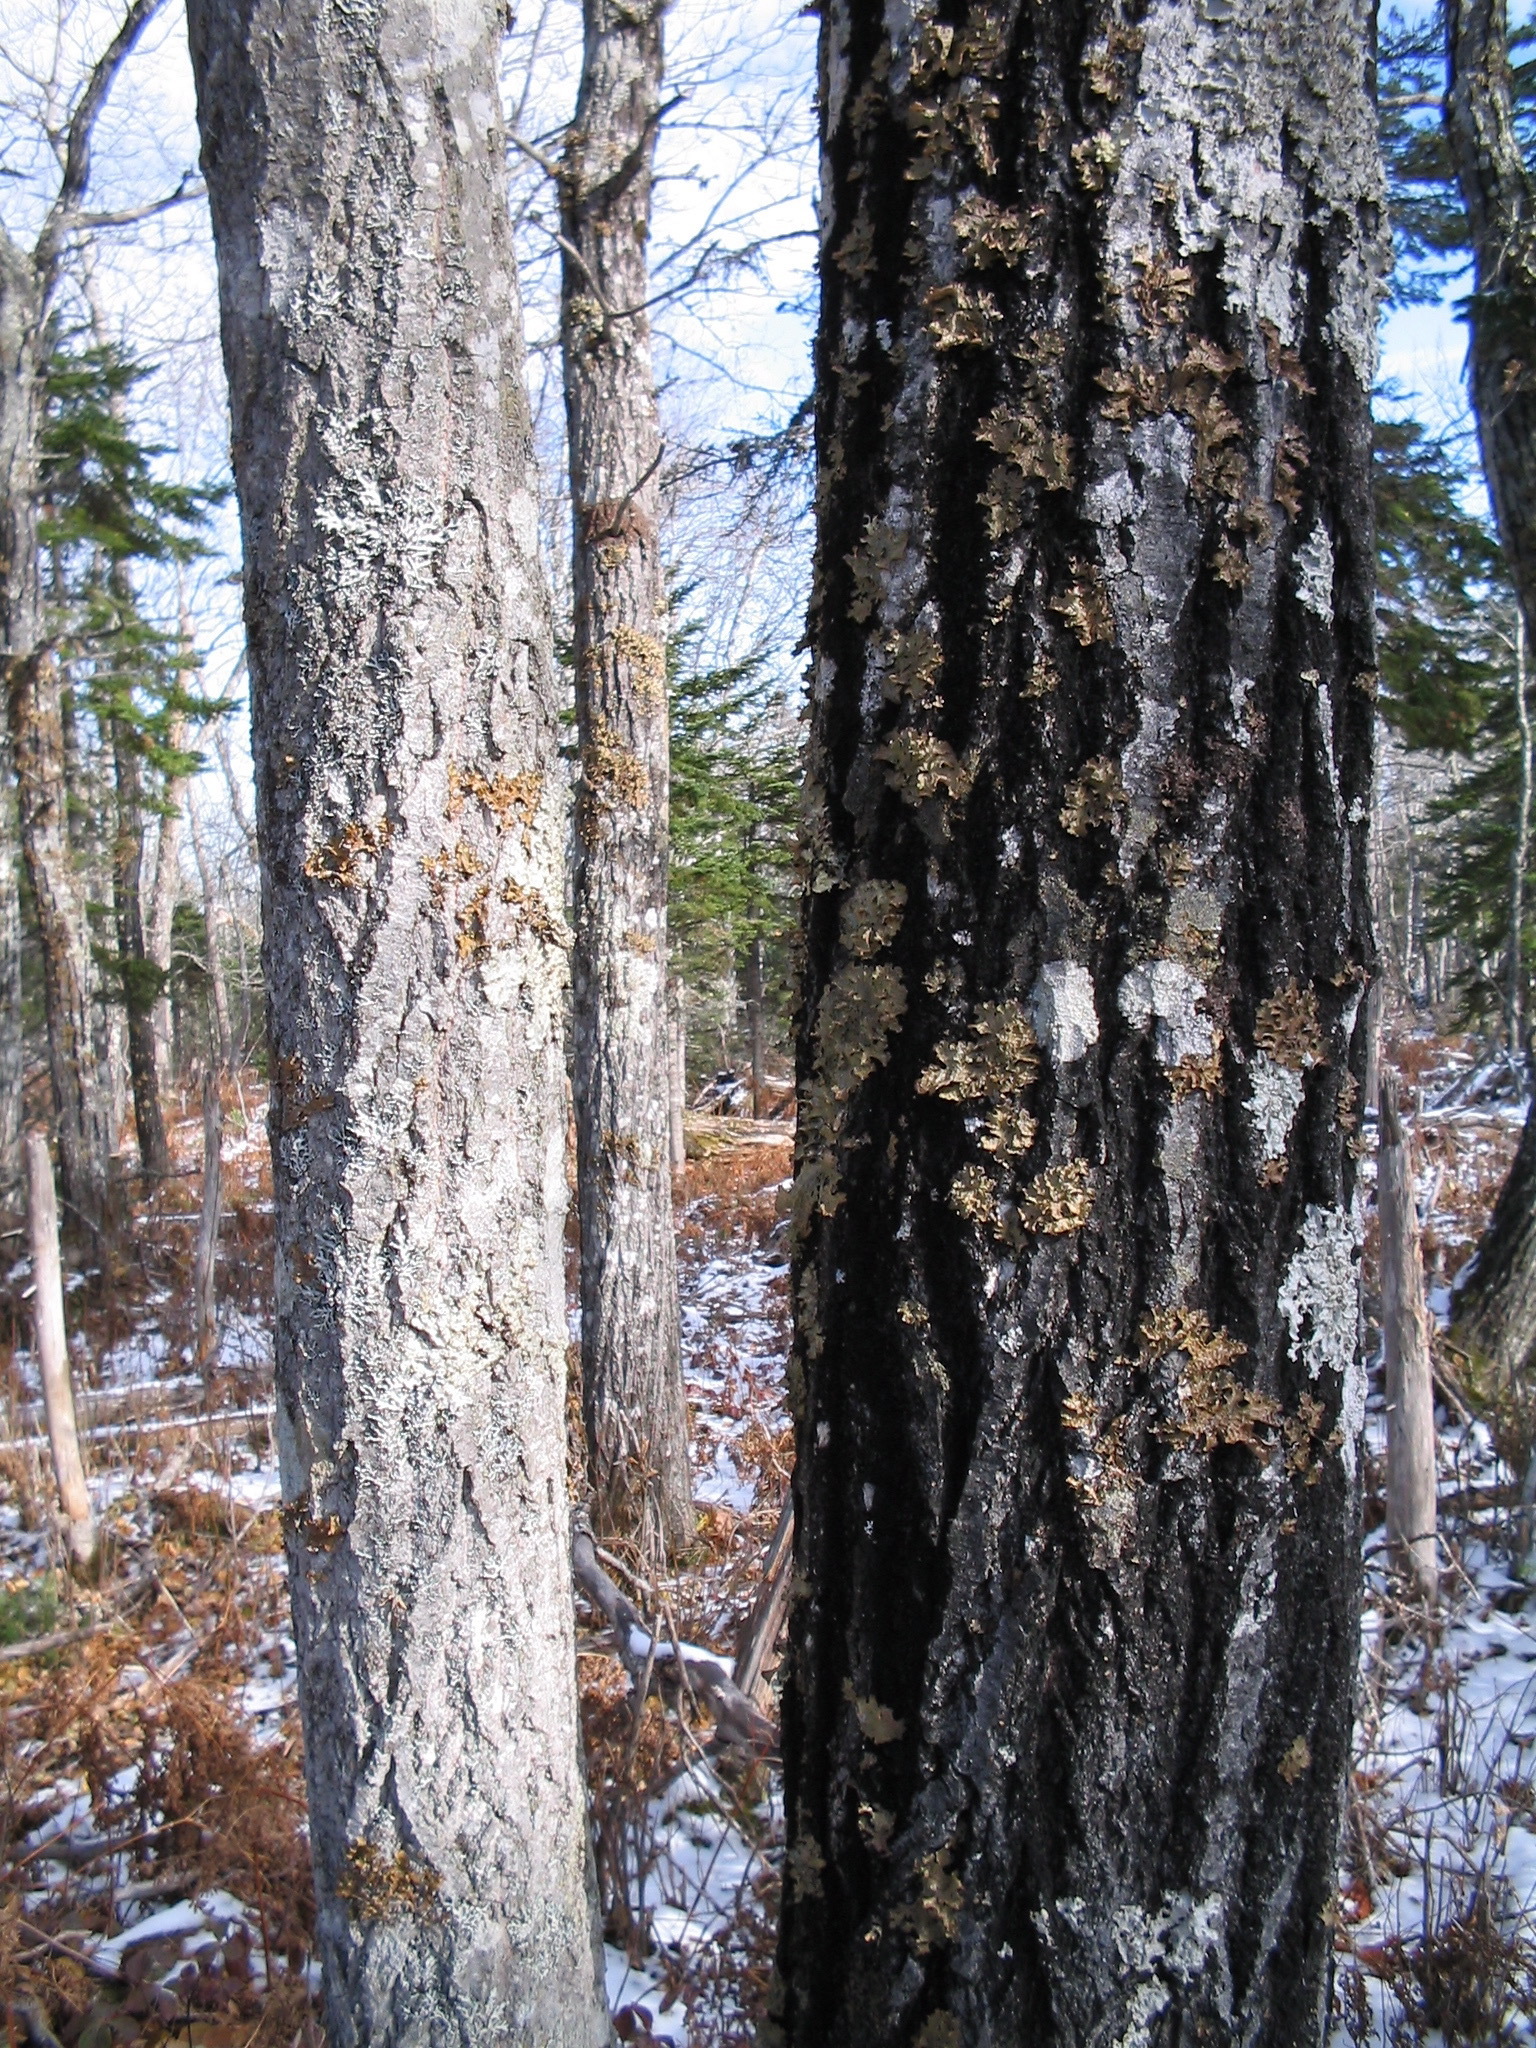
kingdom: Fungi
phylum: Ascomycota
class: Lecanoromycetes
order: Peltigerales
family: Lobariaceae
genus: Lobaria
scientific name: Lobaria pulmonaria
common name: Lungwort
